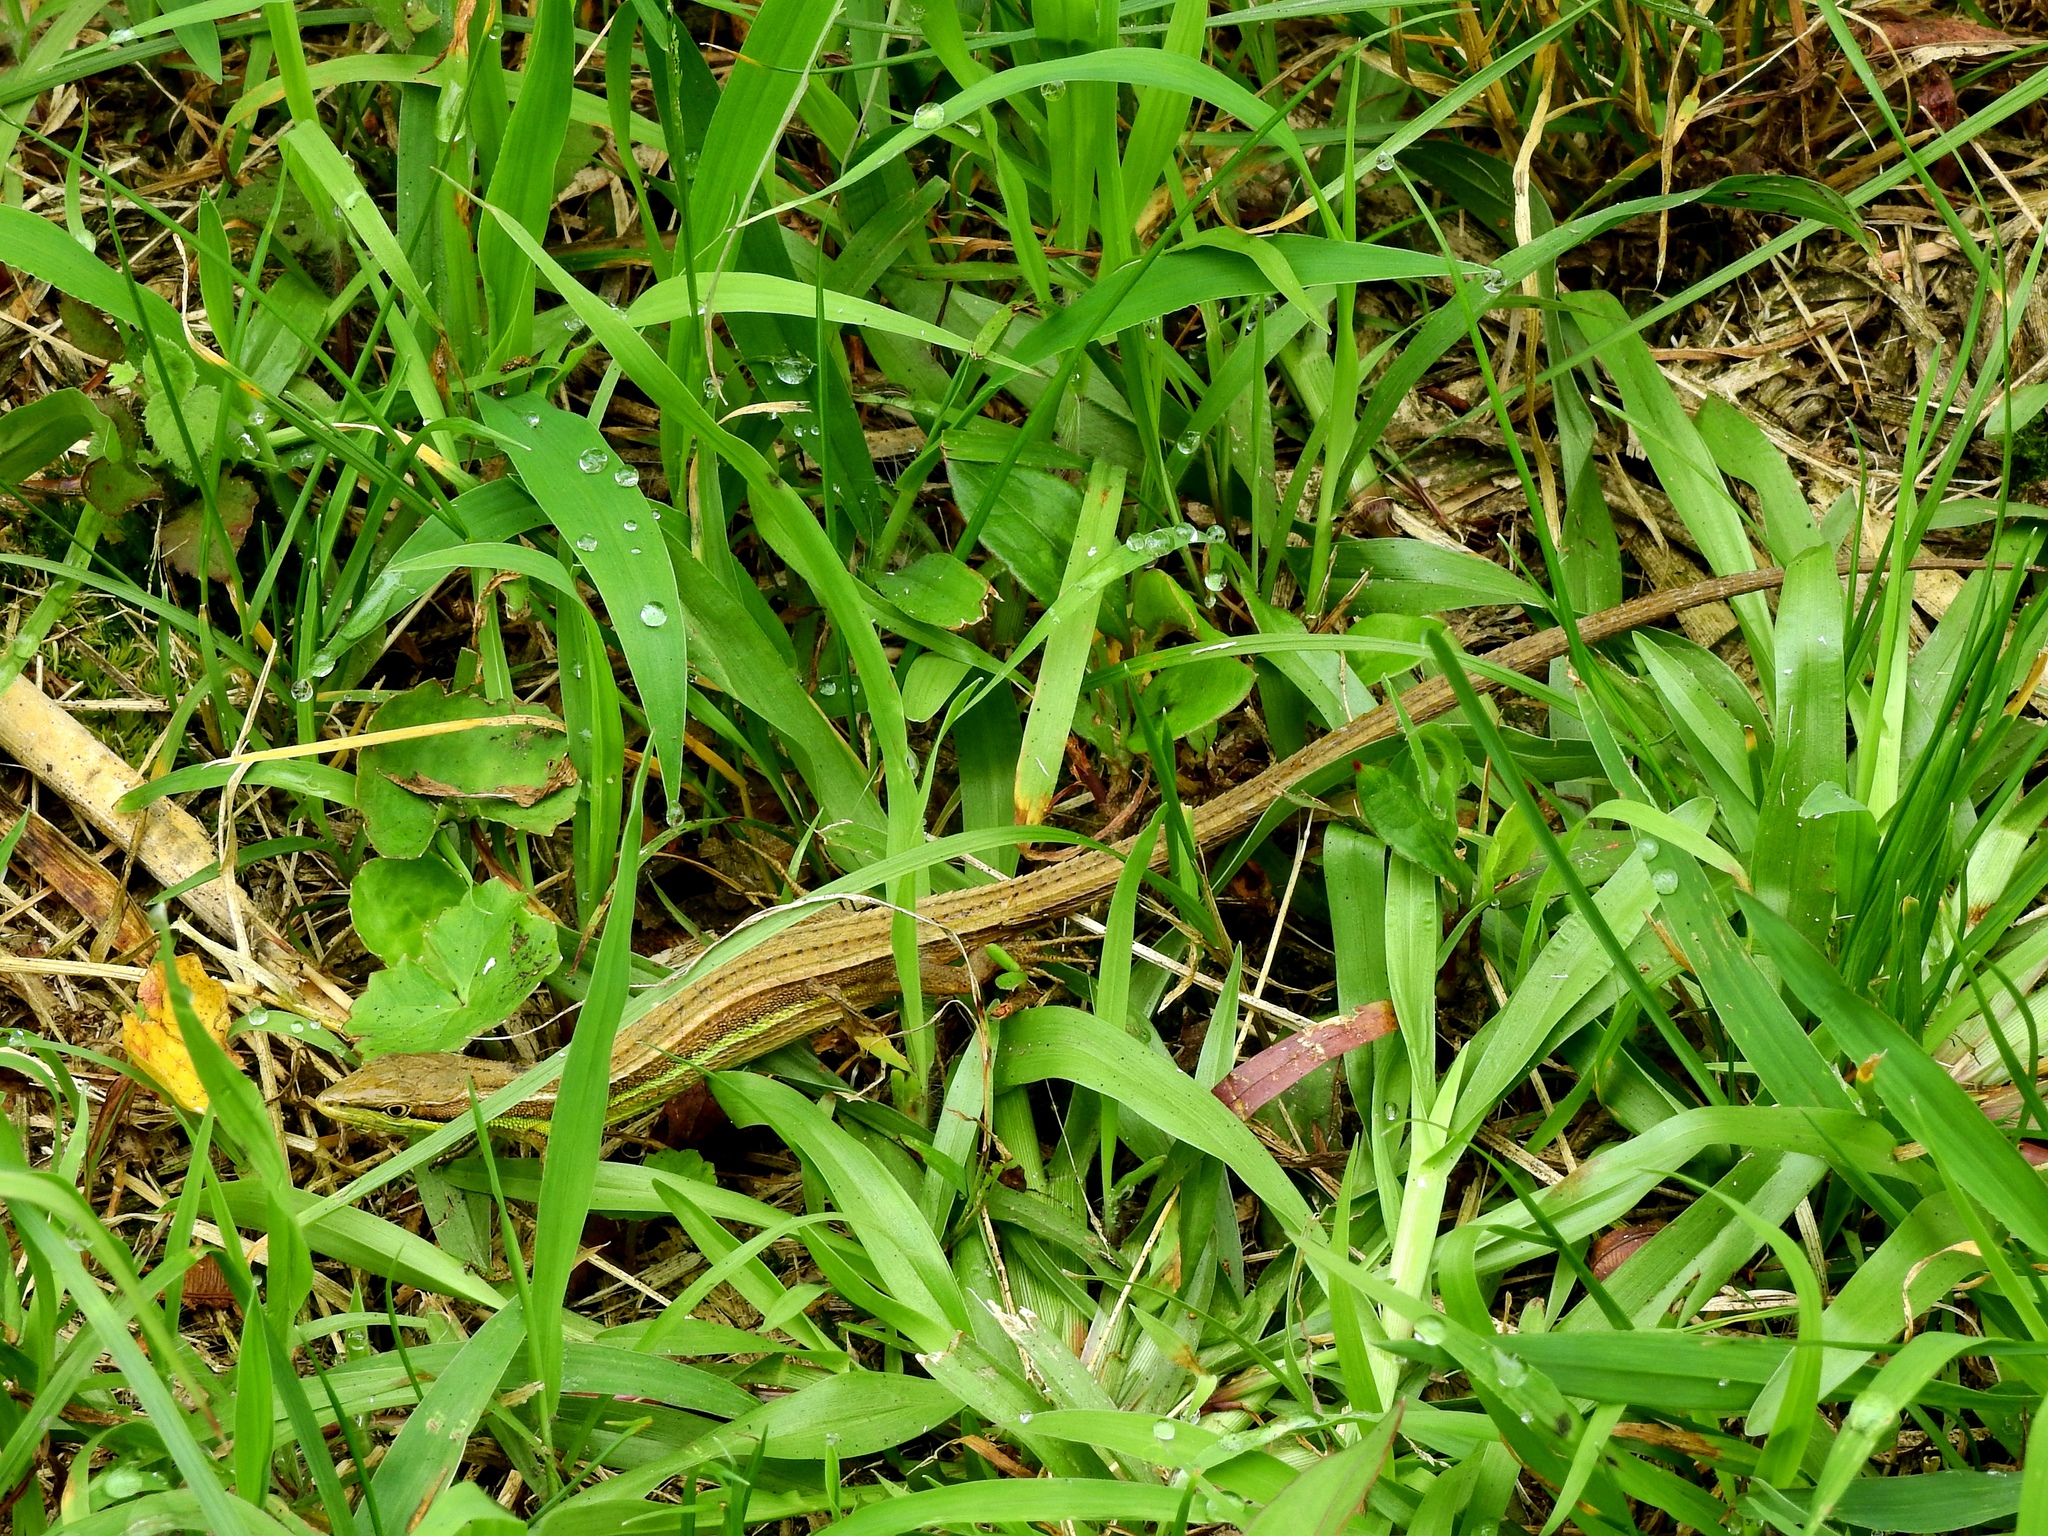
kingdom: Animalia
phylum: Chordata
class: Squamata
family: Lacertidae
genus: Takydromus
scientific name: Takydromus viridipunctatus
